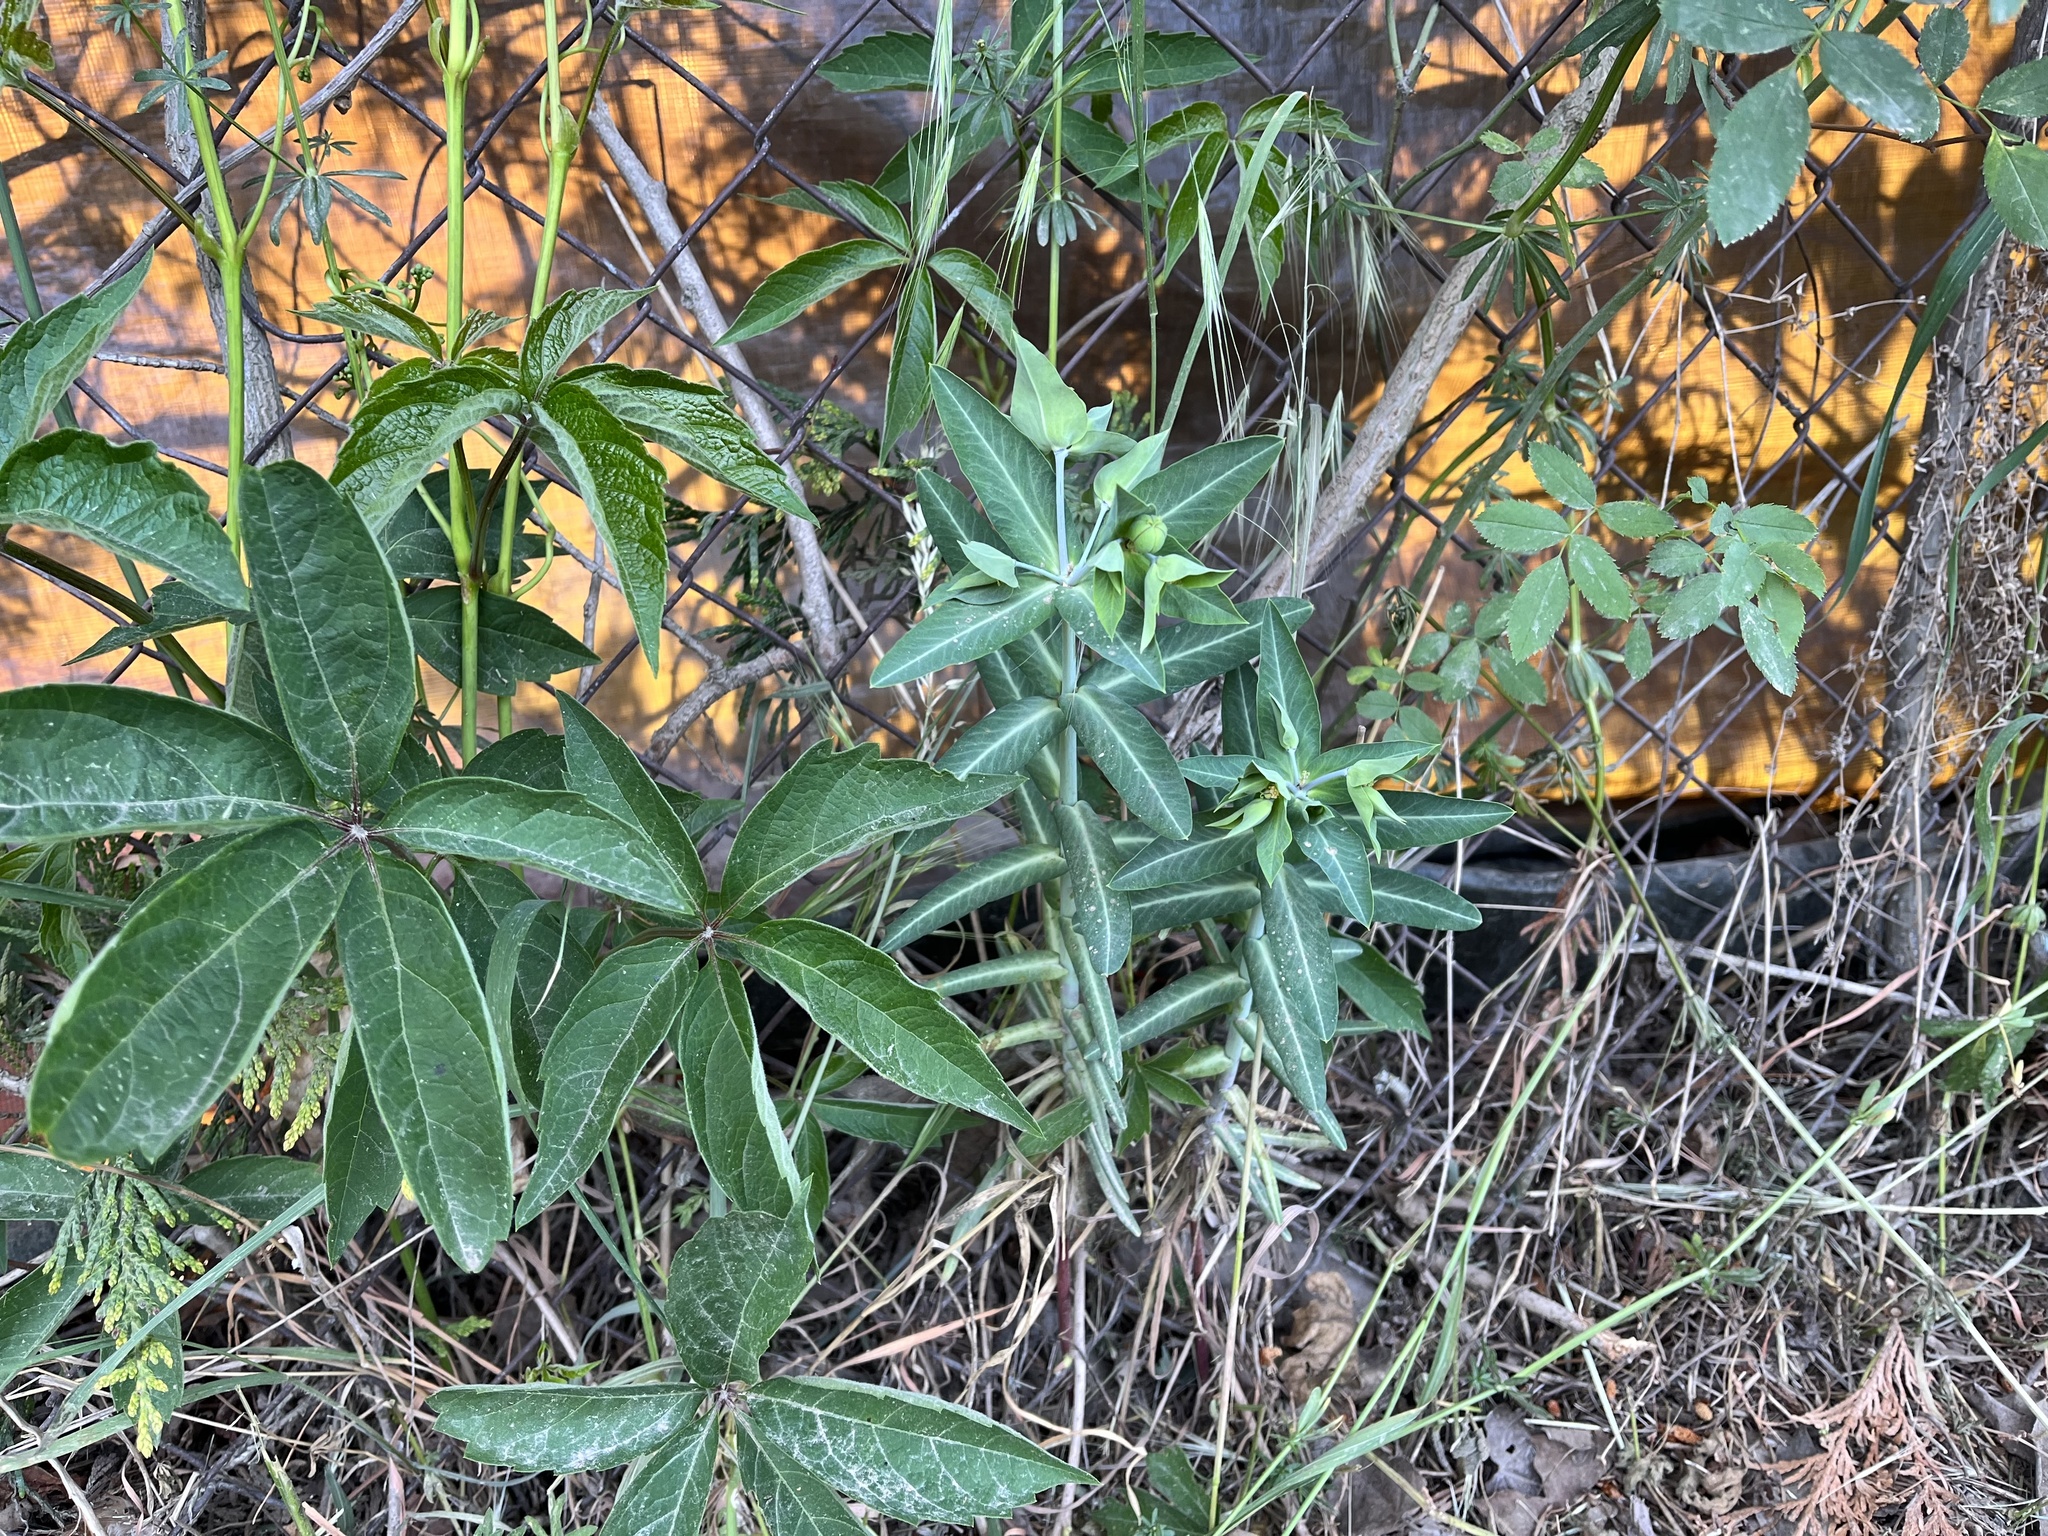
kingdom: Plantae
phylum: Tracheophyta
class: Magnoliopsida
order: Malpighiales
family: Euphorbiaceae
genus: Euphorbia
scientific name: Euphorbia lathyris
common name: Caper spurge
